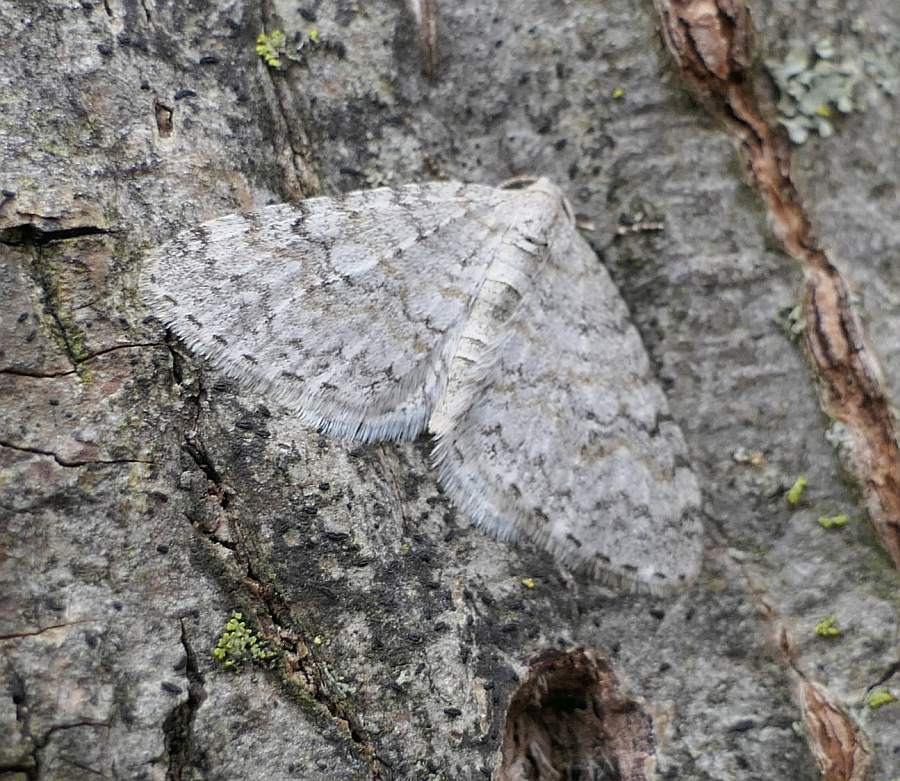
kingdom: Animalia
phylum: Arthropoda
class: Insecta
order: Lepidoptera
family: Geometridae
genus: Venusia
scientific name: Venusia comptaria
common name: Brown-shaded carpet
